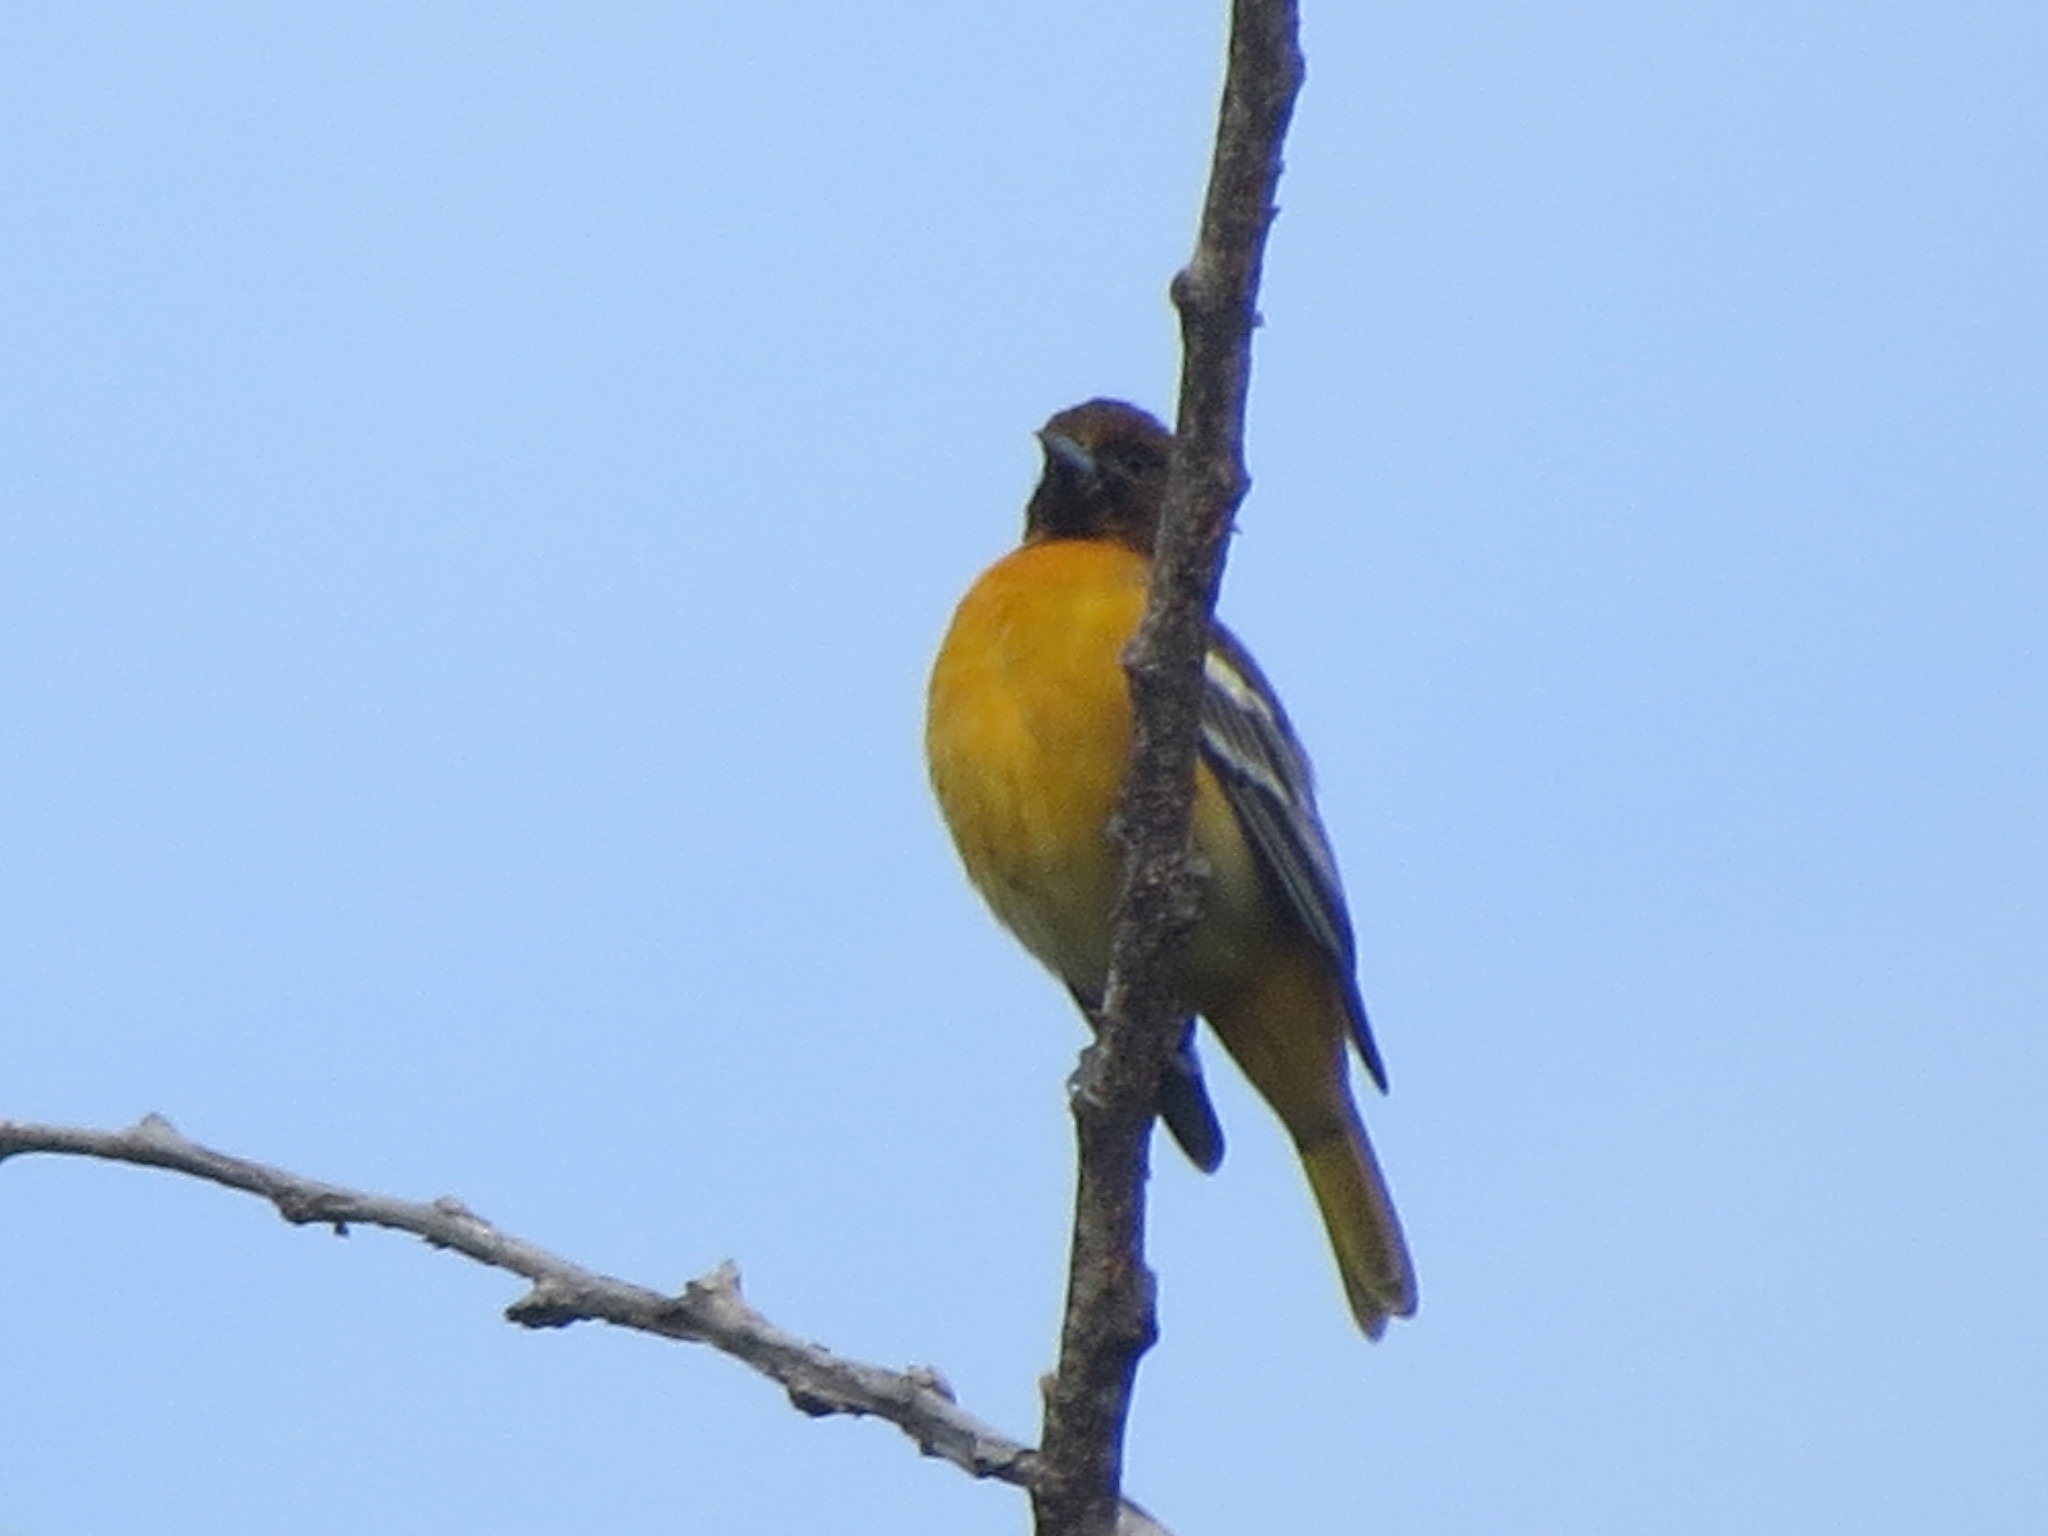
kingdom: Animalia
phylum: Chordata
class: Aves
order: Passeriformes
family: Icteridae
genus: Icterus
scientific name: Icterus galbula
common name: Baltimore oriole
